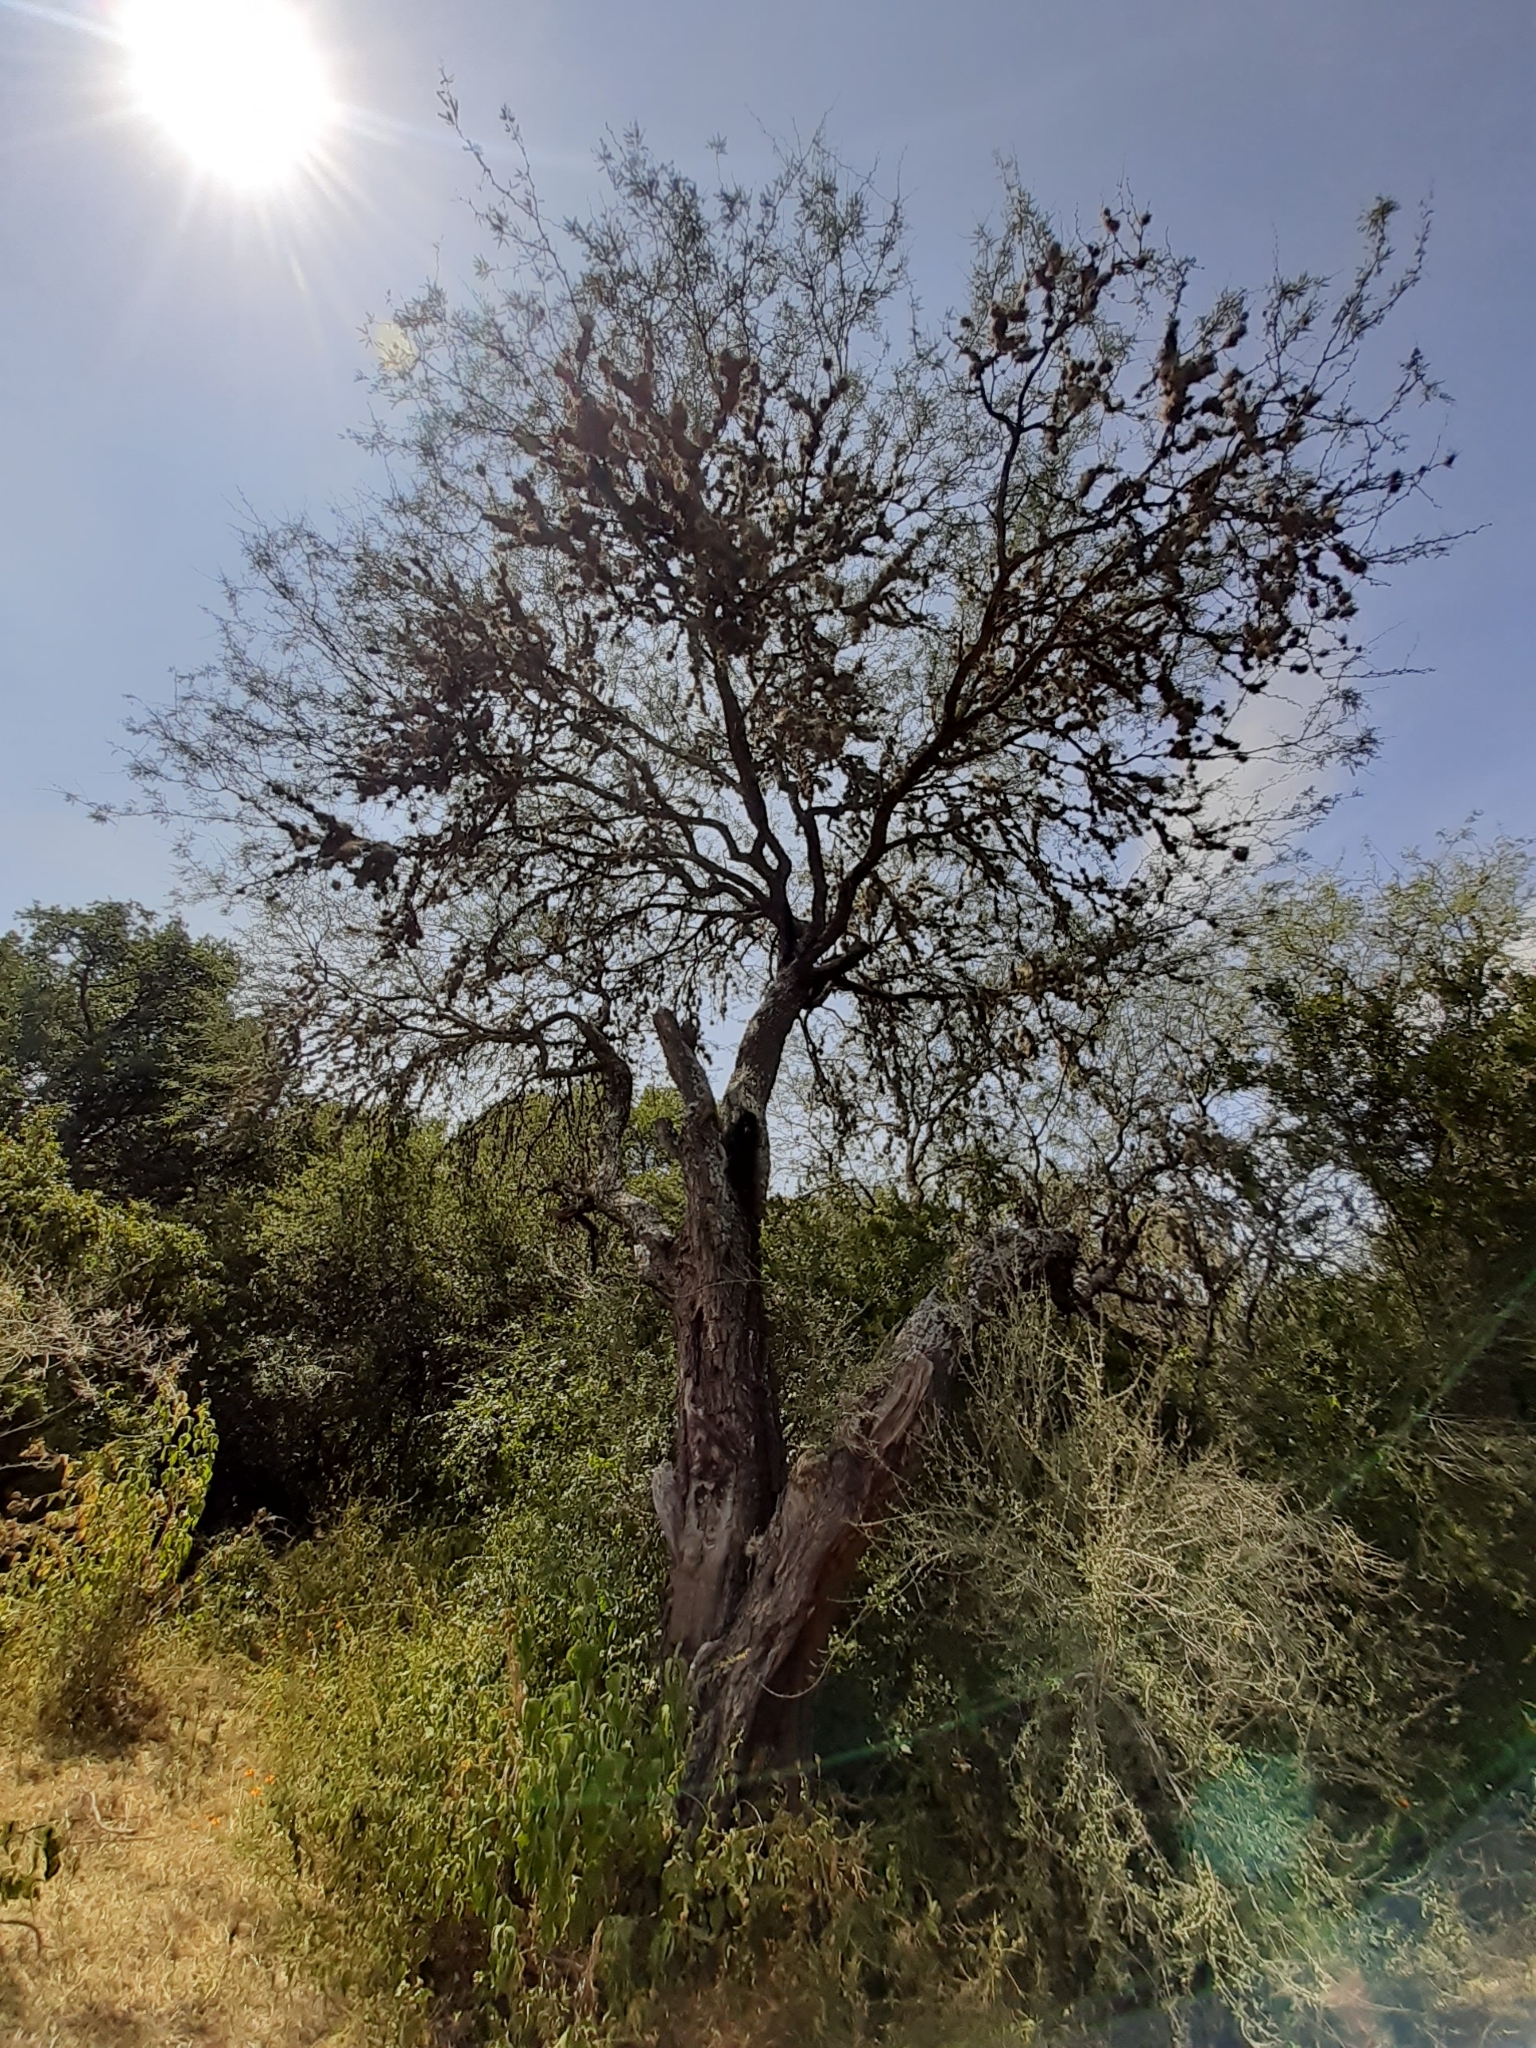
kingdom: Plantae
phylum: Tracheophyta
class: Magnoliopsida
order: Fabales
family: Fabaceae
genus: Prosopis
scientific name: Prosopis laevigata
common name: Smooth mesquite
